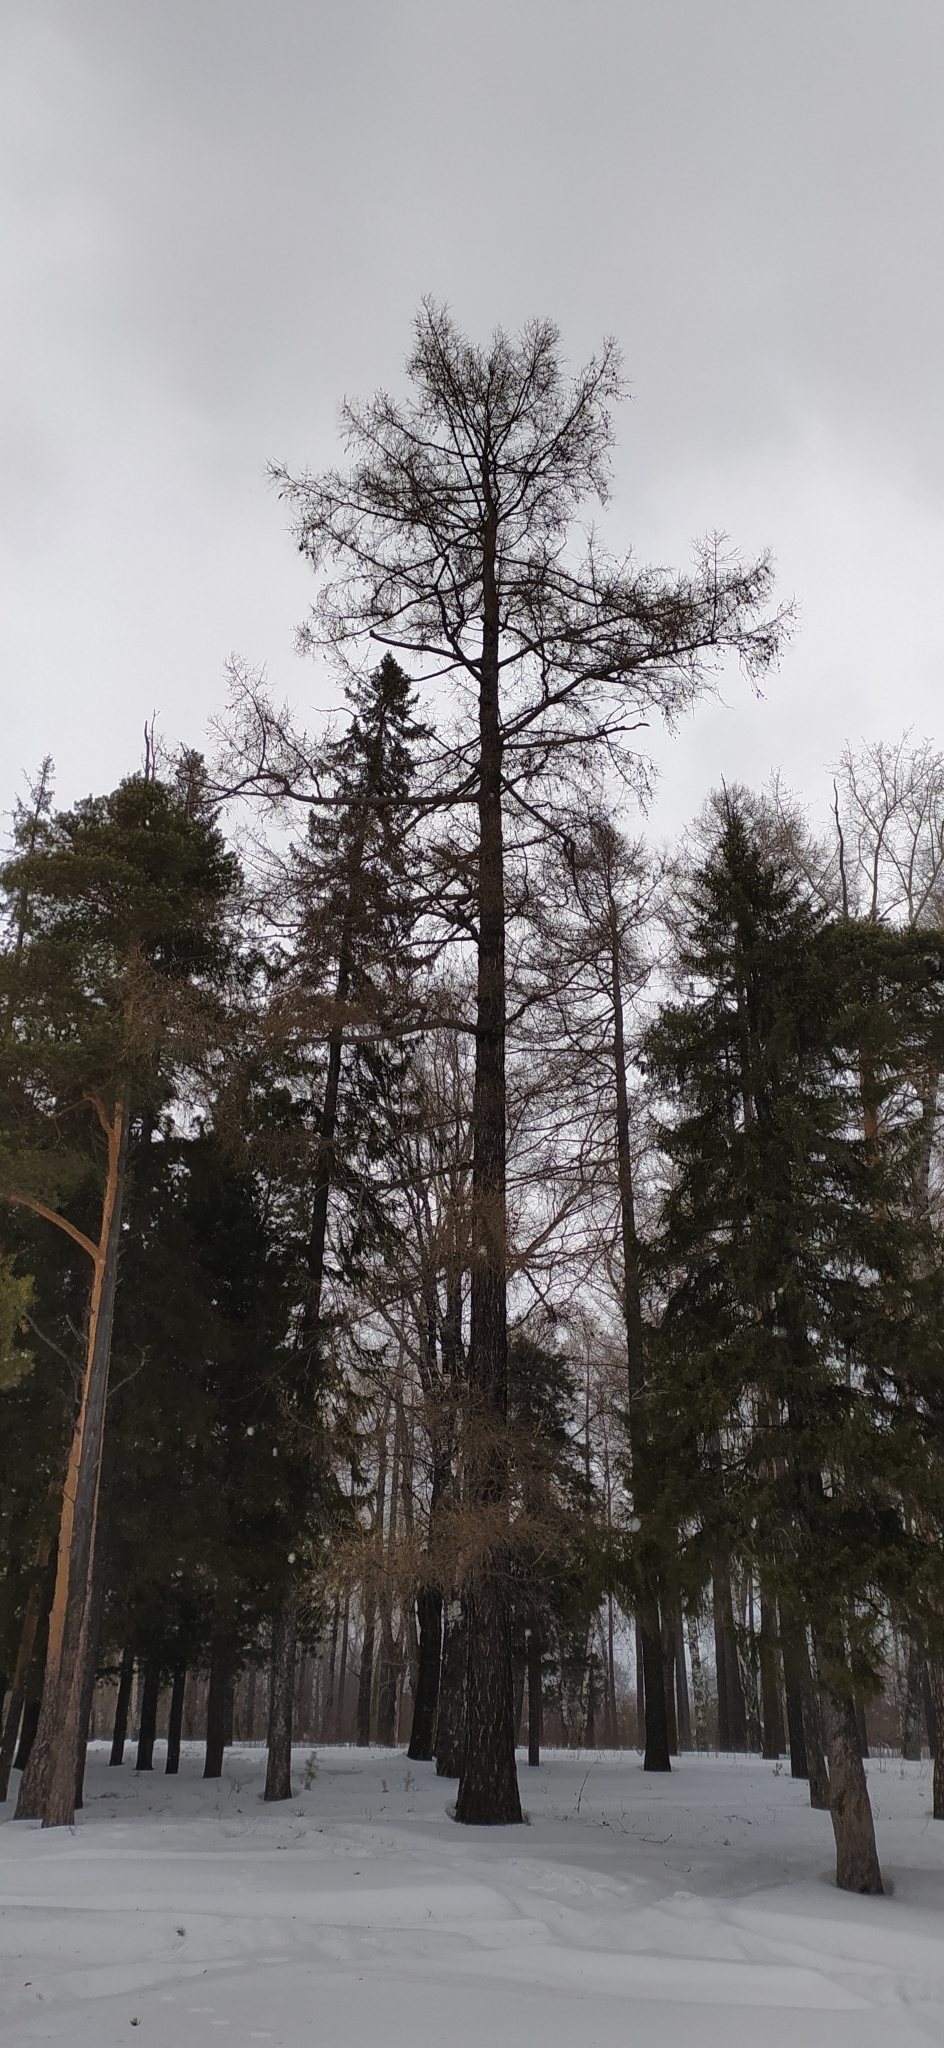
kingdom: Plantae
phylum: Tracheophyta
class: Pinopsida
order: Pinales
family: Pinaceae
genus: Larix
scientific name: Larix sibirica
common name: Siberian larch
